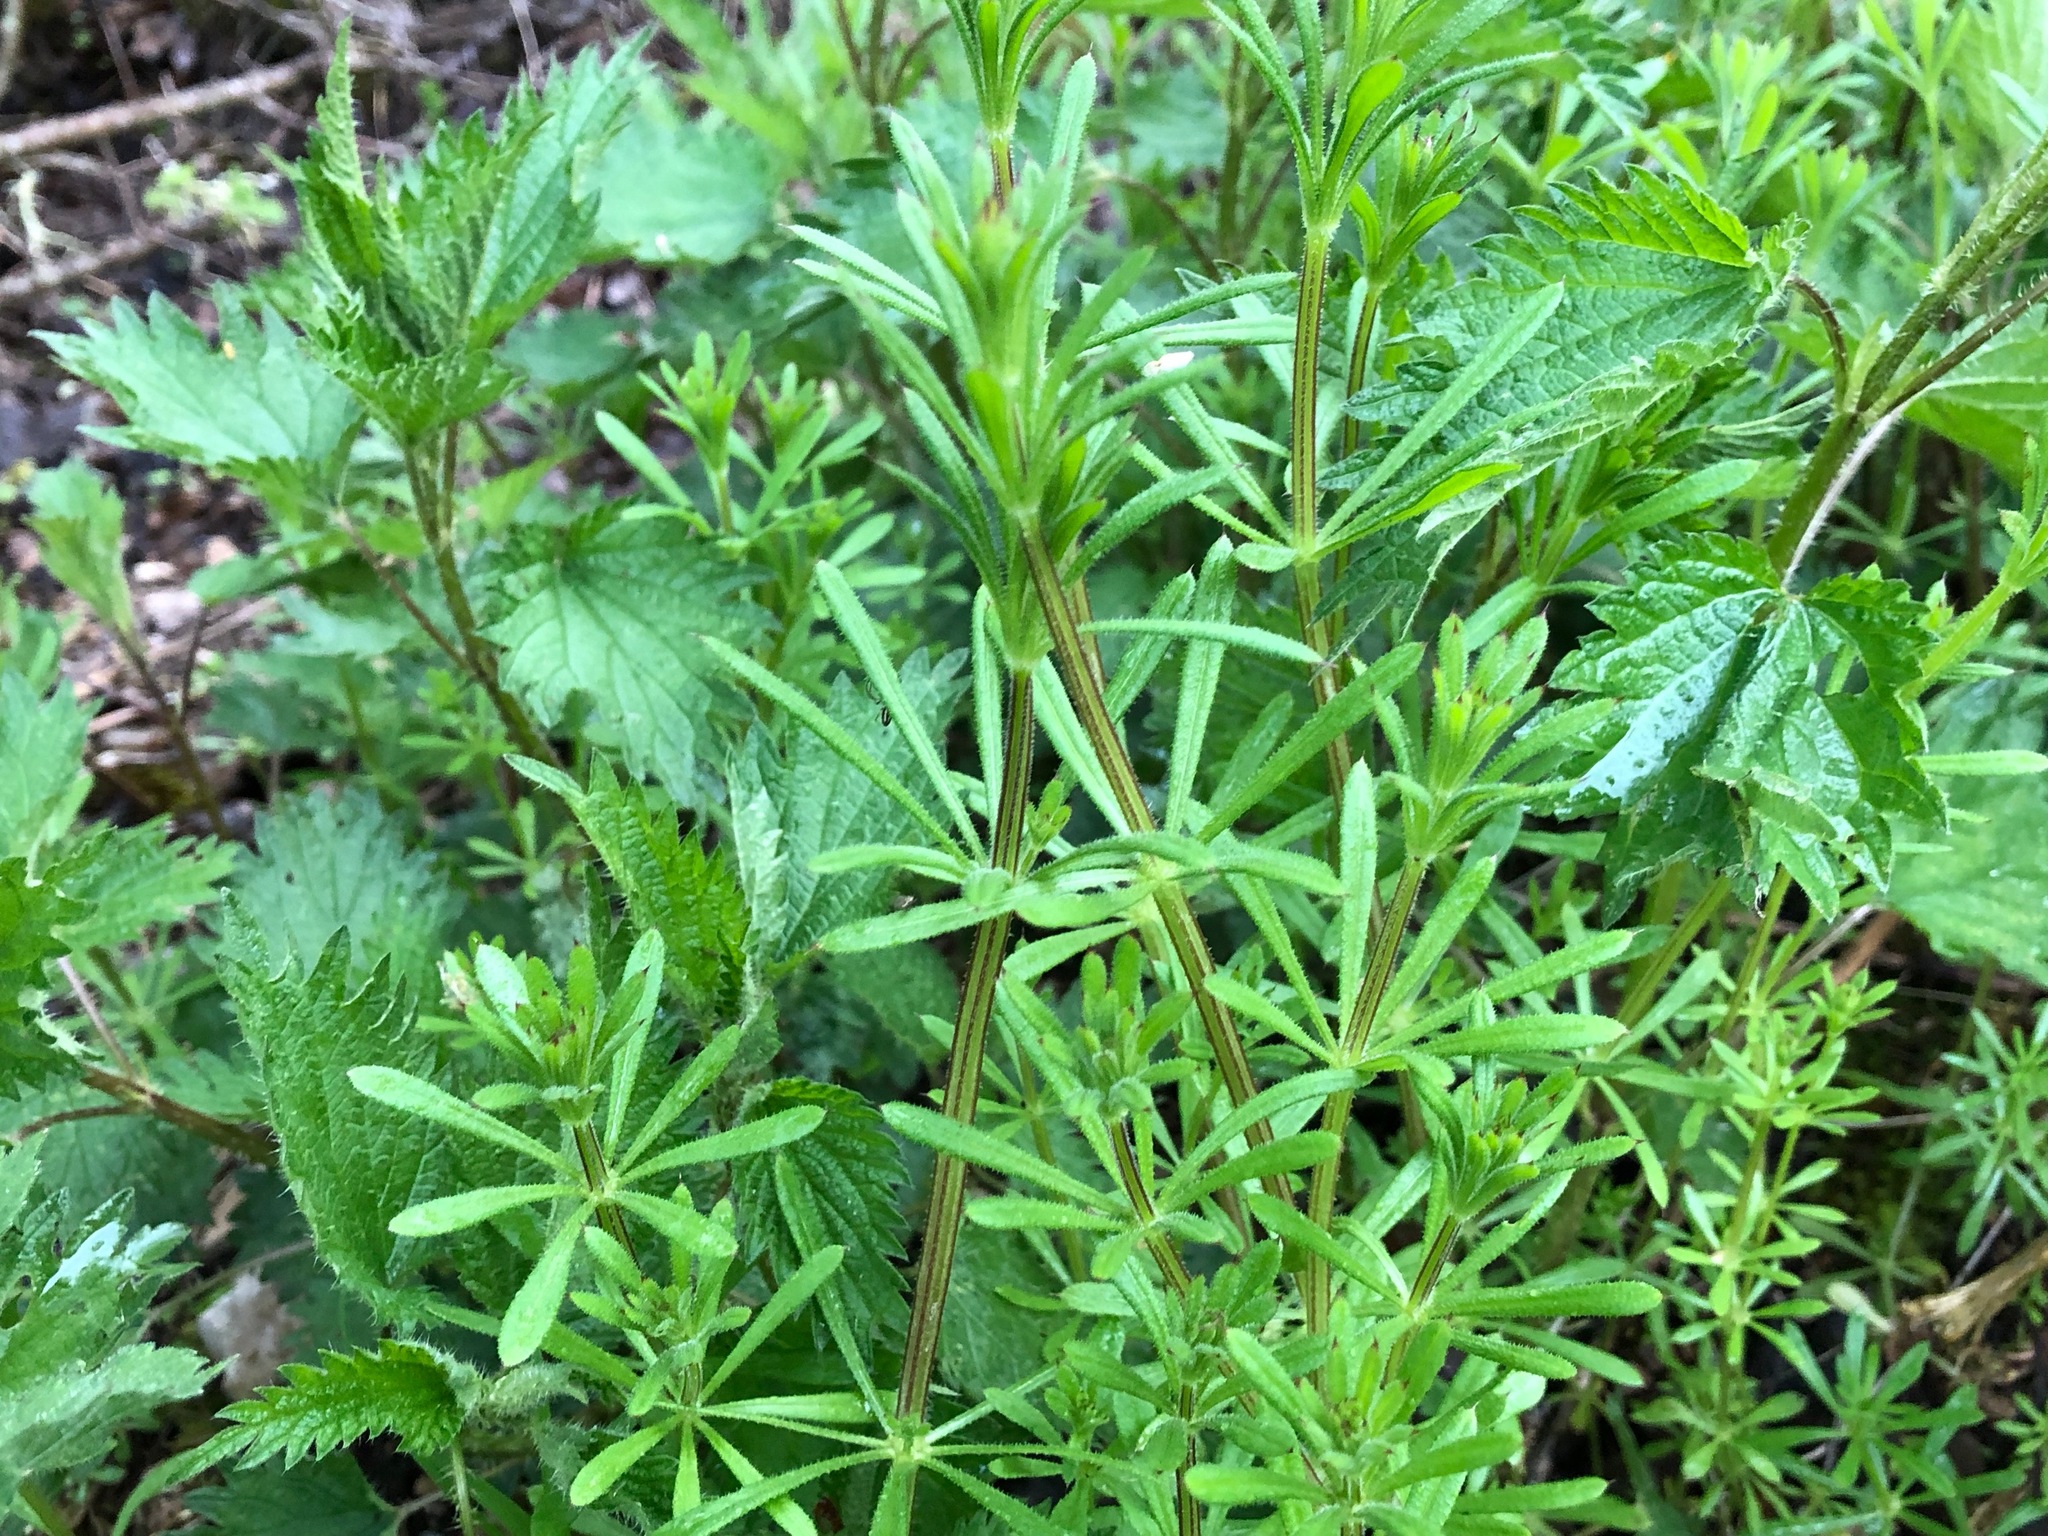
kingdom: Plantae
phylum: Tracheophyta
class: Magnoliopsida
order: Gentianales
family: Rubiaceae
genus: Galium
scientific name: Galium aparine
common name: Cleavers
